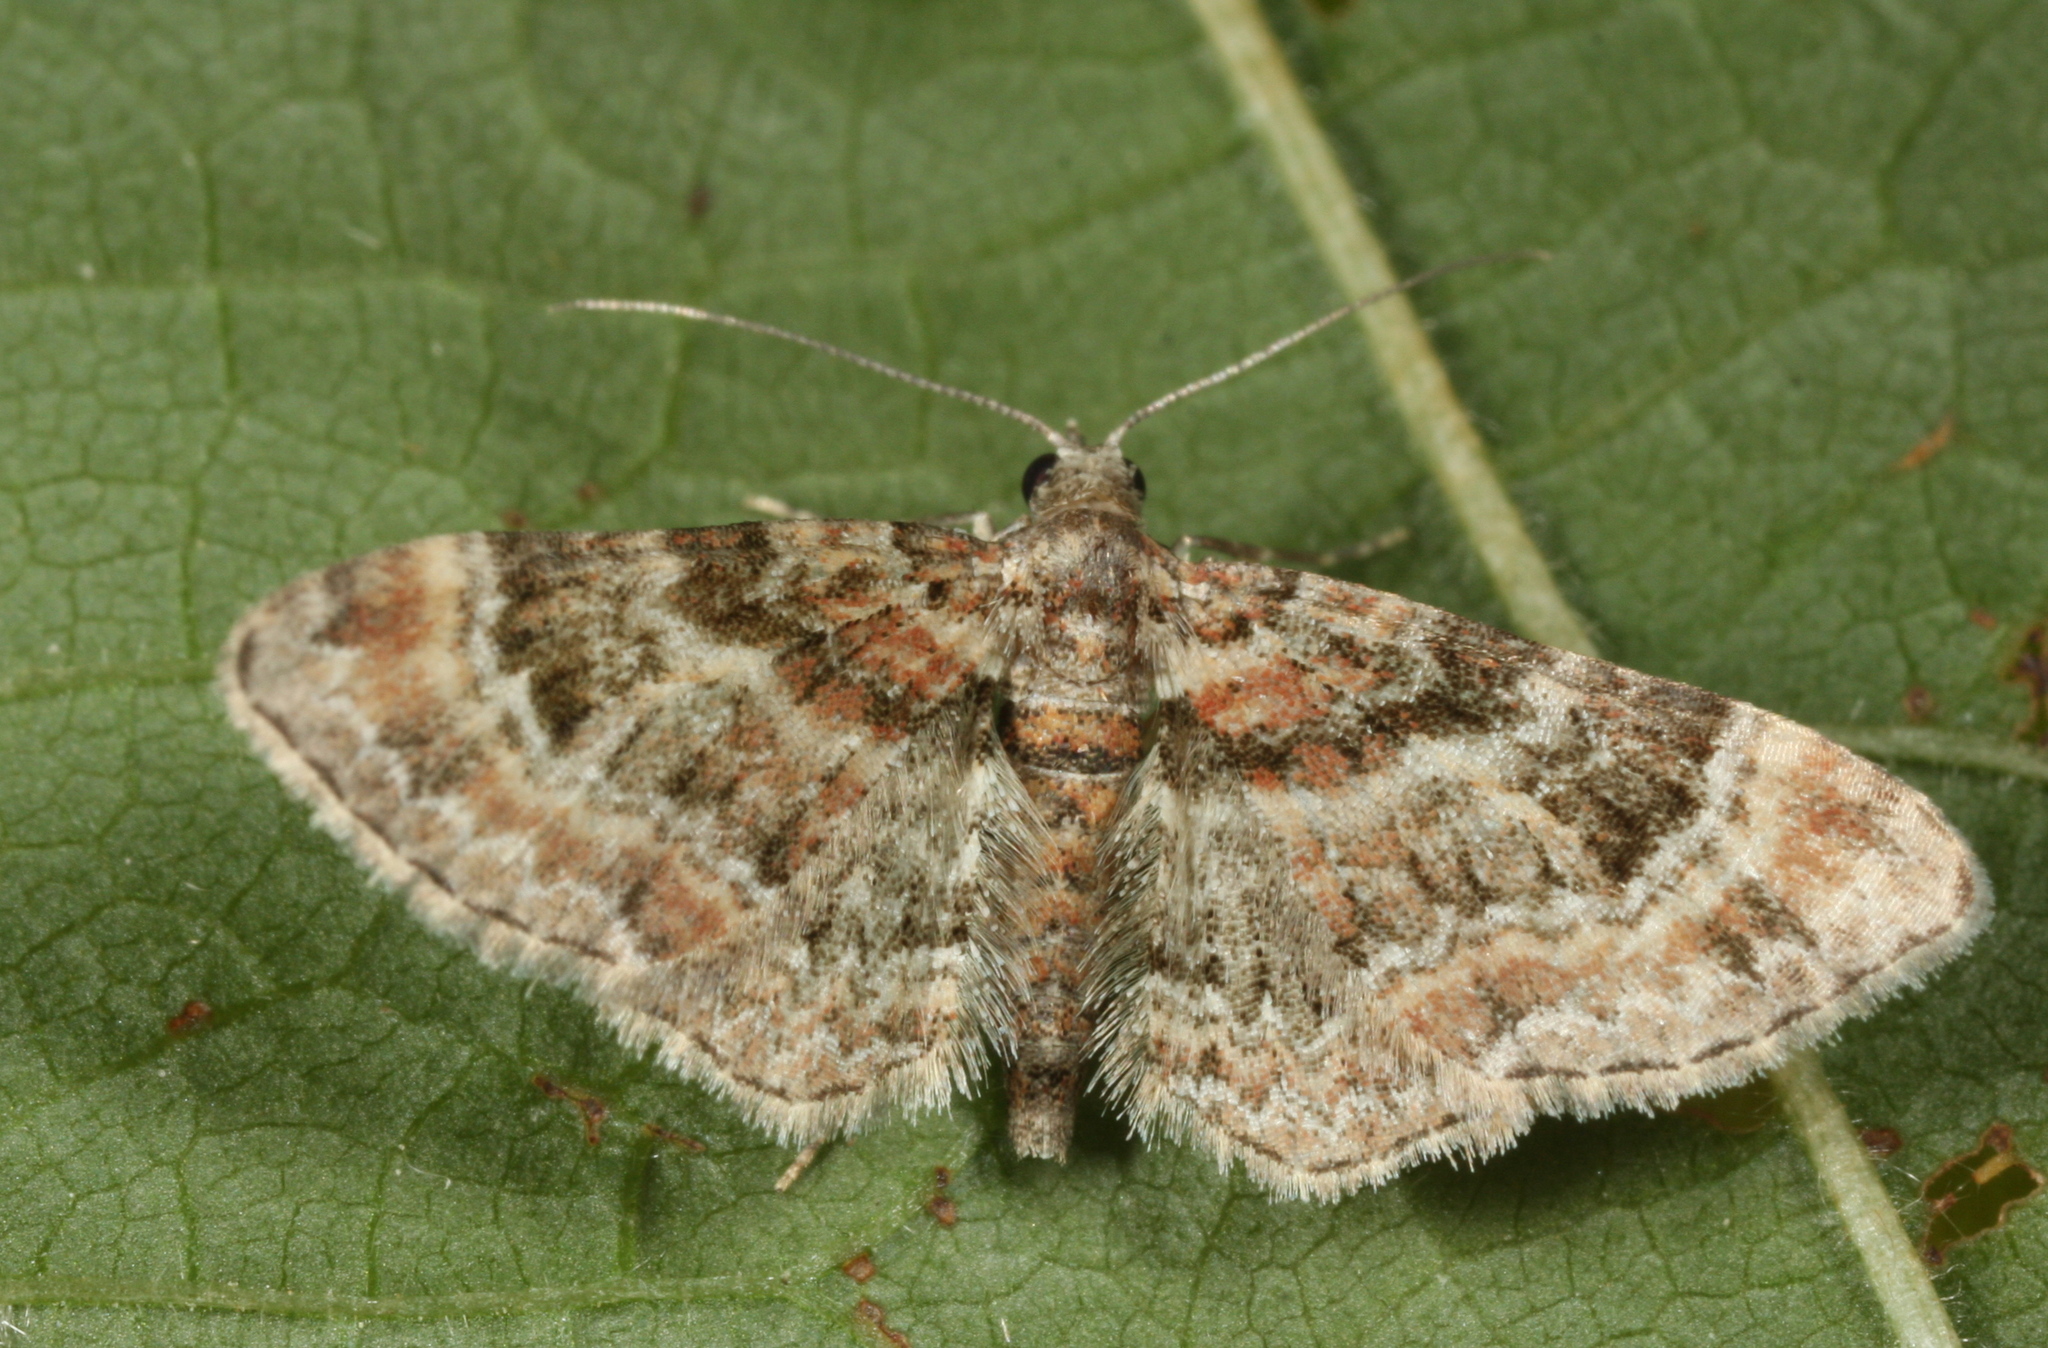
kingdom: Animalia
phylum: Arthropoda
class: Insecta
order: Lepidoptera
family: Geometridae
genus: Gymnoscelis
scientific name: Gymnoscelis rufifasciata
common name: Double-striped pug
